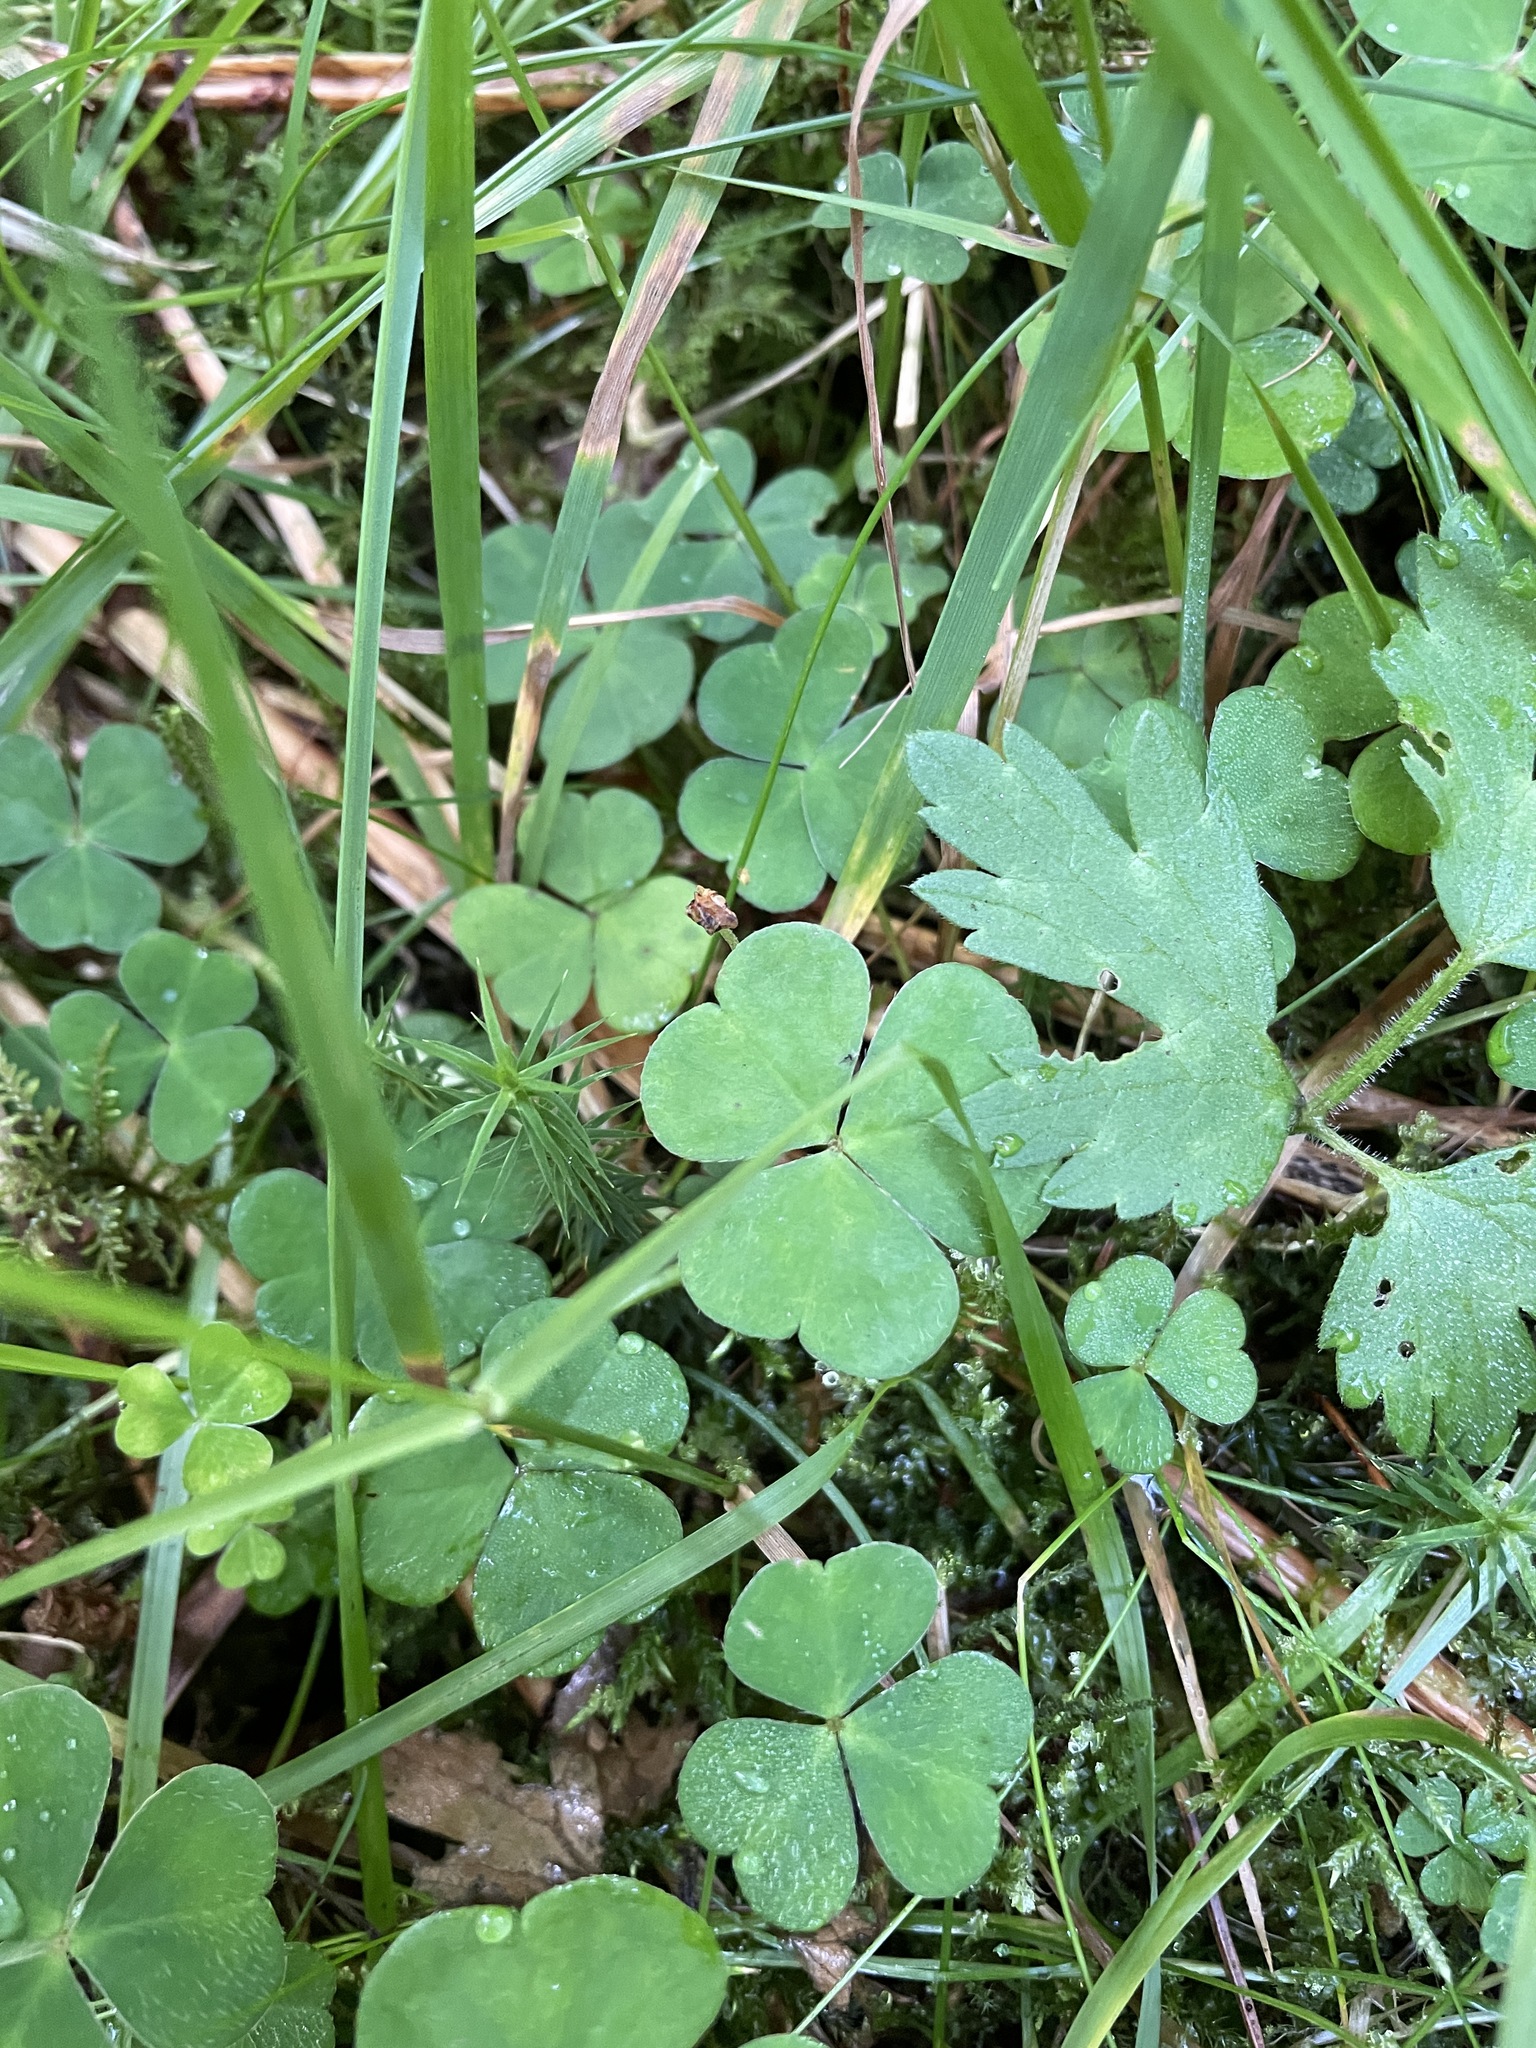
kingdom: Plantae
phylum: Tracheophyta
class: Magnoliopsida
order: Oxalidales
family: Oxalidaceae
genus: Oxalis
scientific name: Oxalis acetosella
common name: Wood-sorrel
